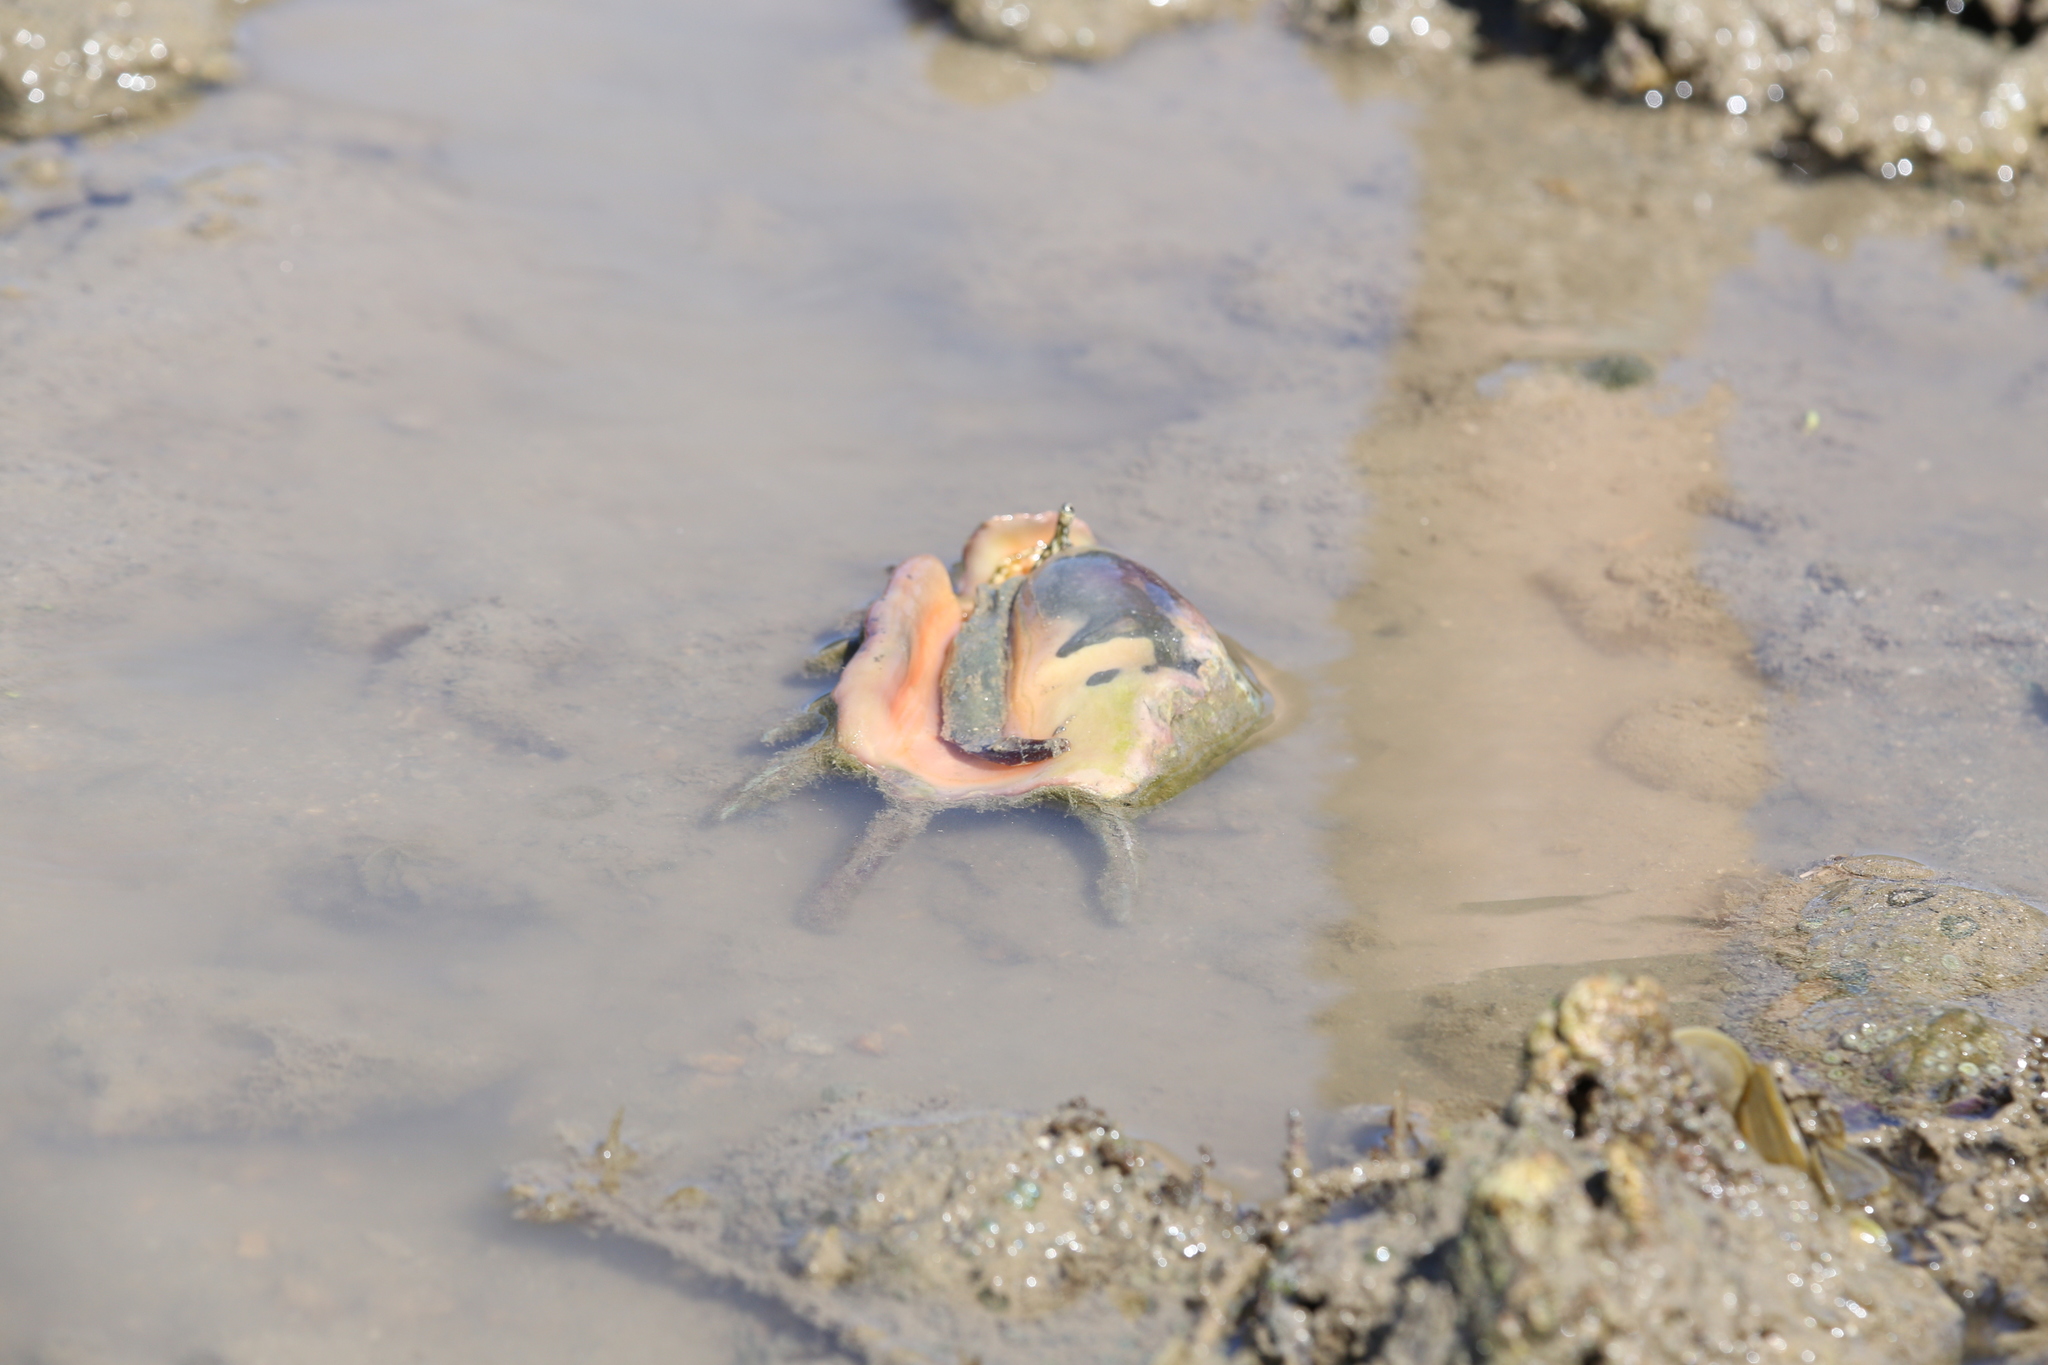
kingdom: Animalia
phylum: Mollusca
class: Gastropoda
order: Littorinimorpha
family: Strombidae
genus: Lambis
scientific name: Lambis lambis
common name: Common spider conch
